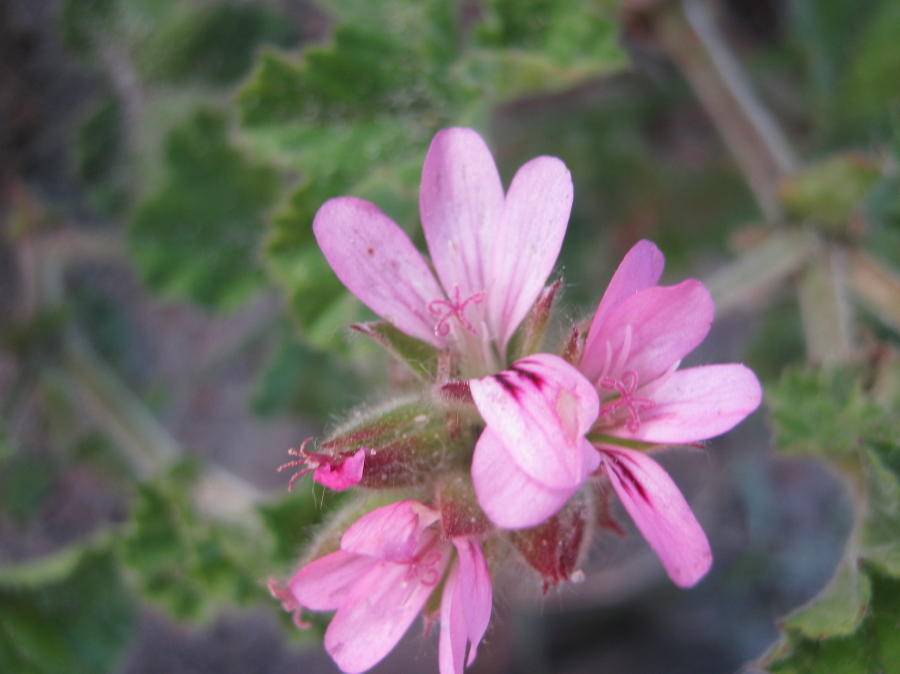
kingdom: Plantae
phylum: Tracheophyta
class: Magnoliopsida
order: Geraniales
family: Geraniaceae
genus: Pelargonium
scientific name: Pelargonium capitatum
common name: Rose scented geranium
